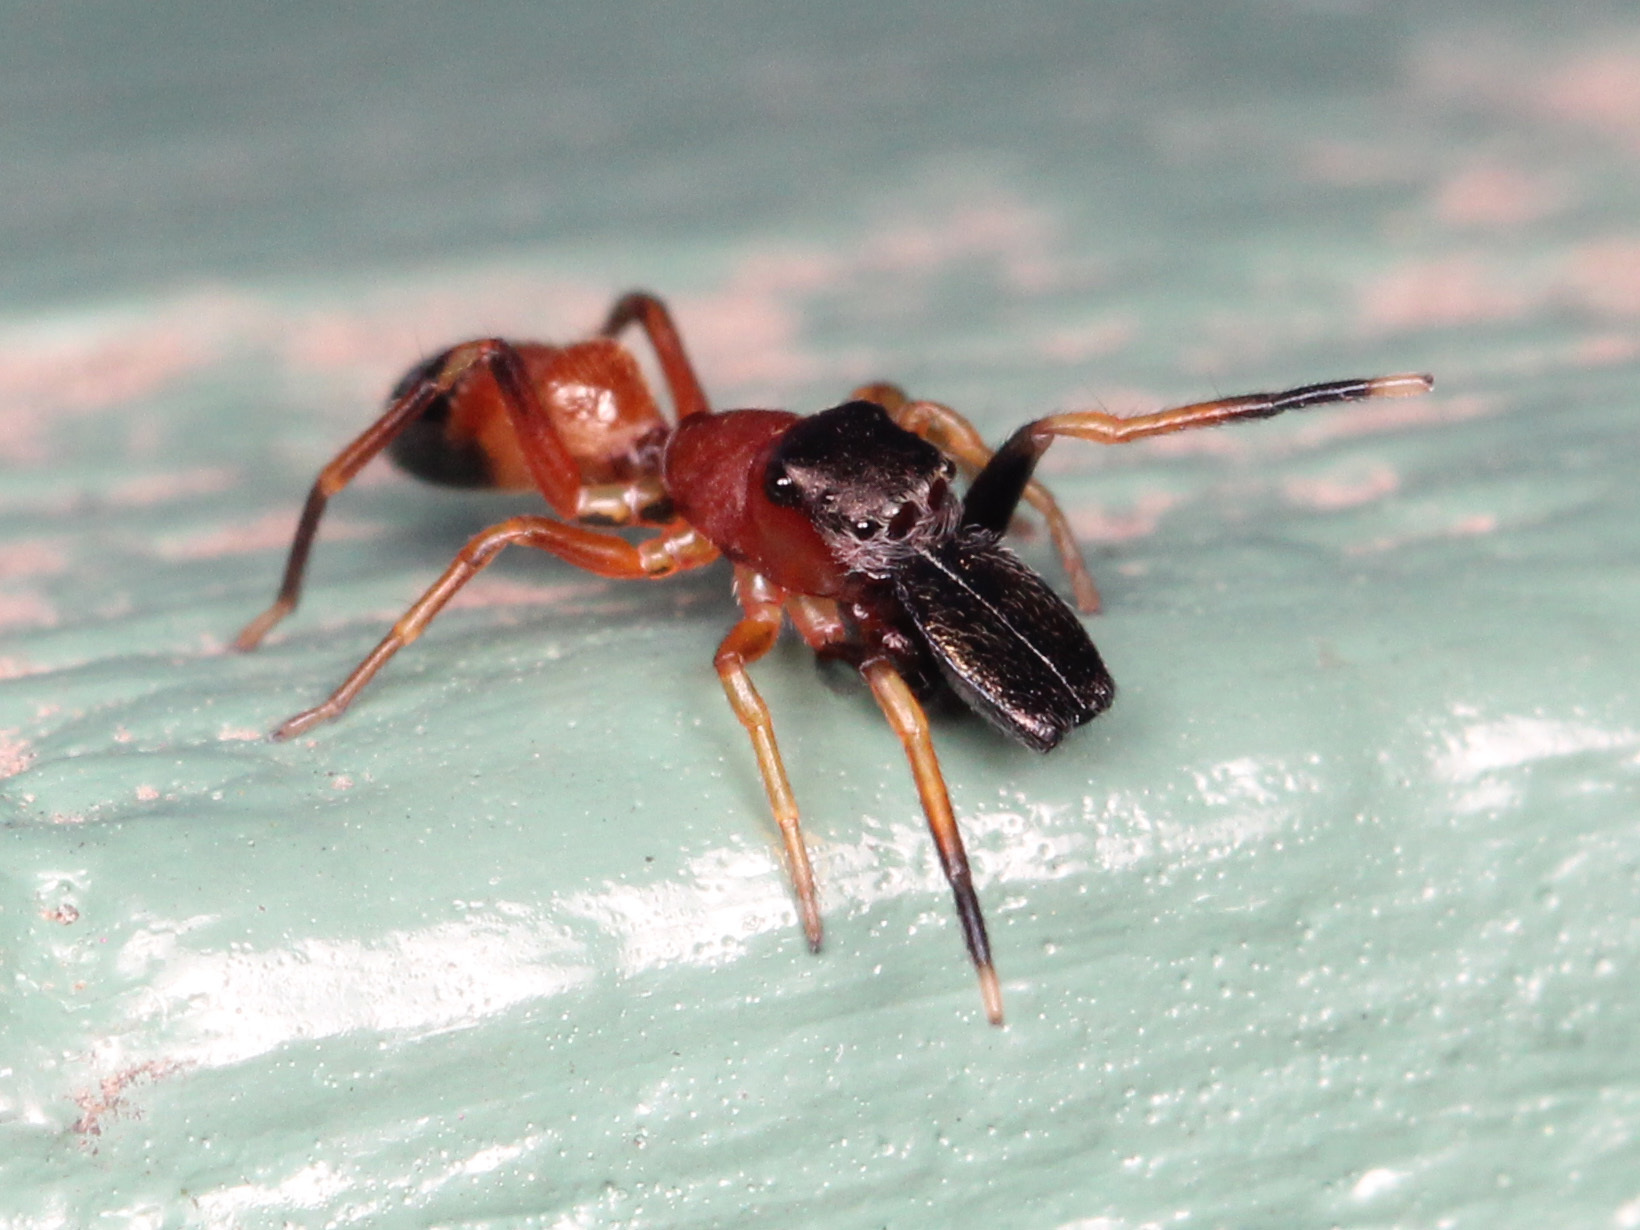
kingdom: Animalia
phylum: Arthropoda
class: Arachnida
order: Araneae
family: Salticidae
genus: Myrmarachne
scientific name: Myrmarachne formicaria
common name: Ant mimic jumping spider
